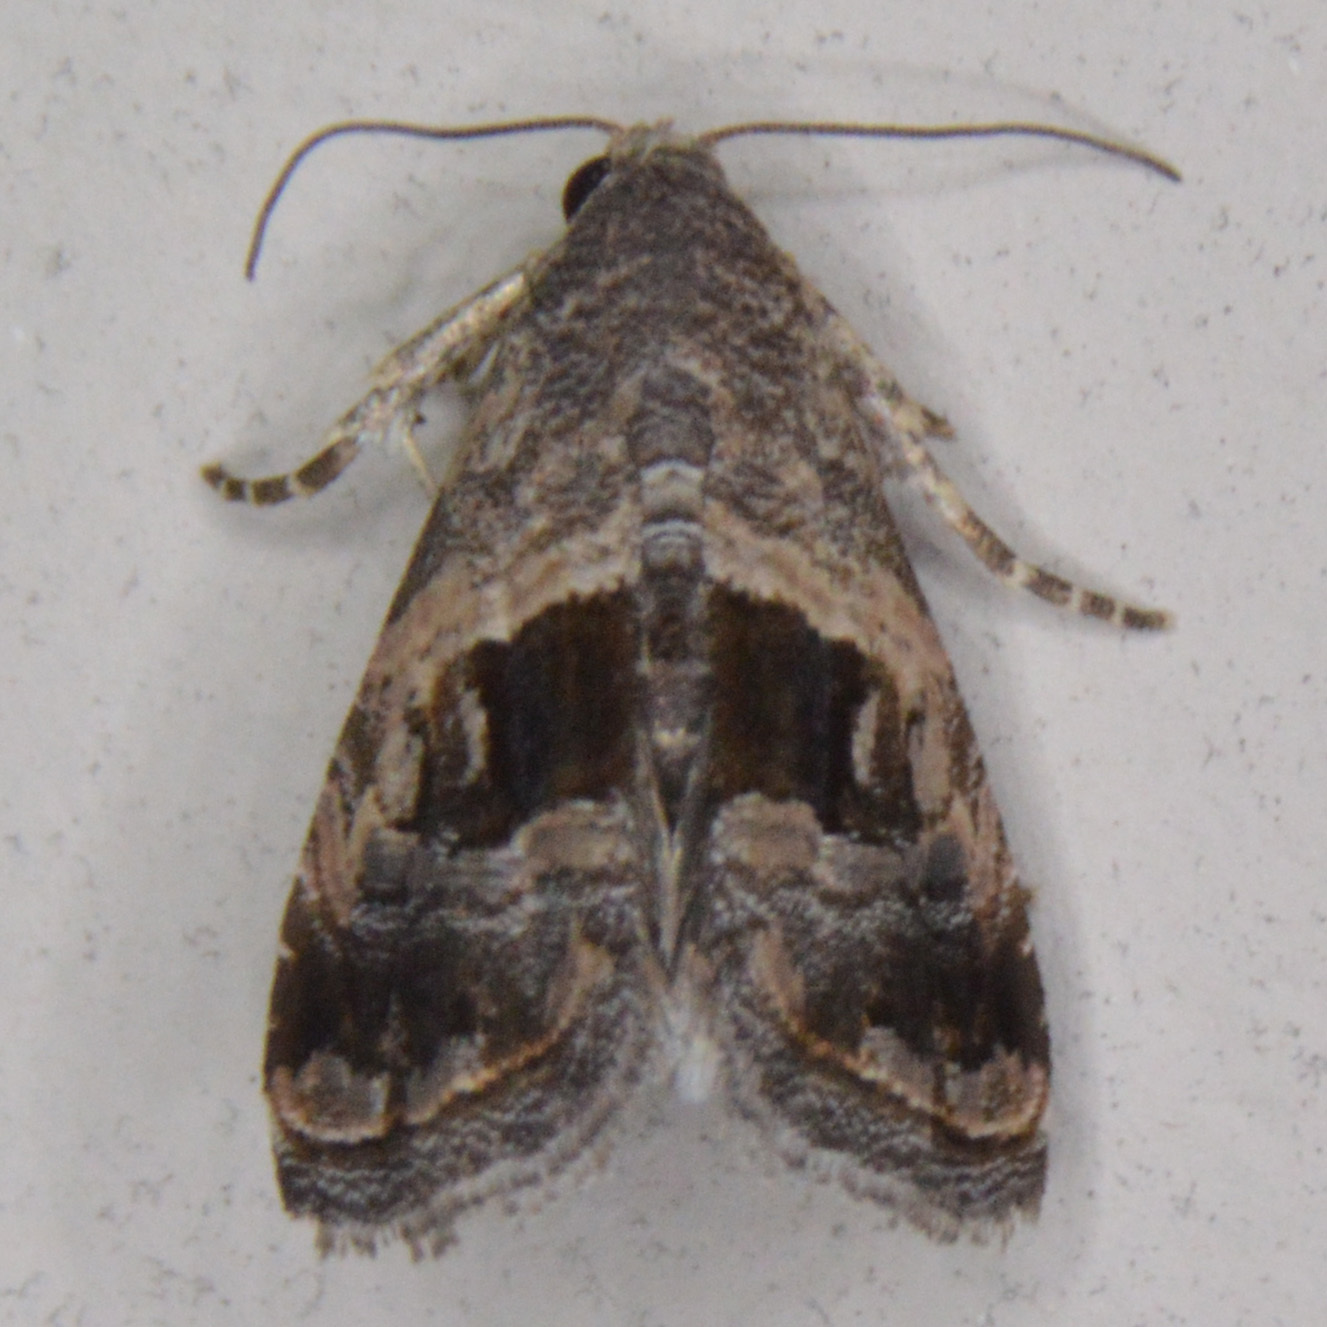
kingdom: Animalia
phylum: Arthropoda
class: Insecta
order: Lepidoptera
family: Noctuidae
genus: Tripudia
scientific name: Tripudia quadrifera
